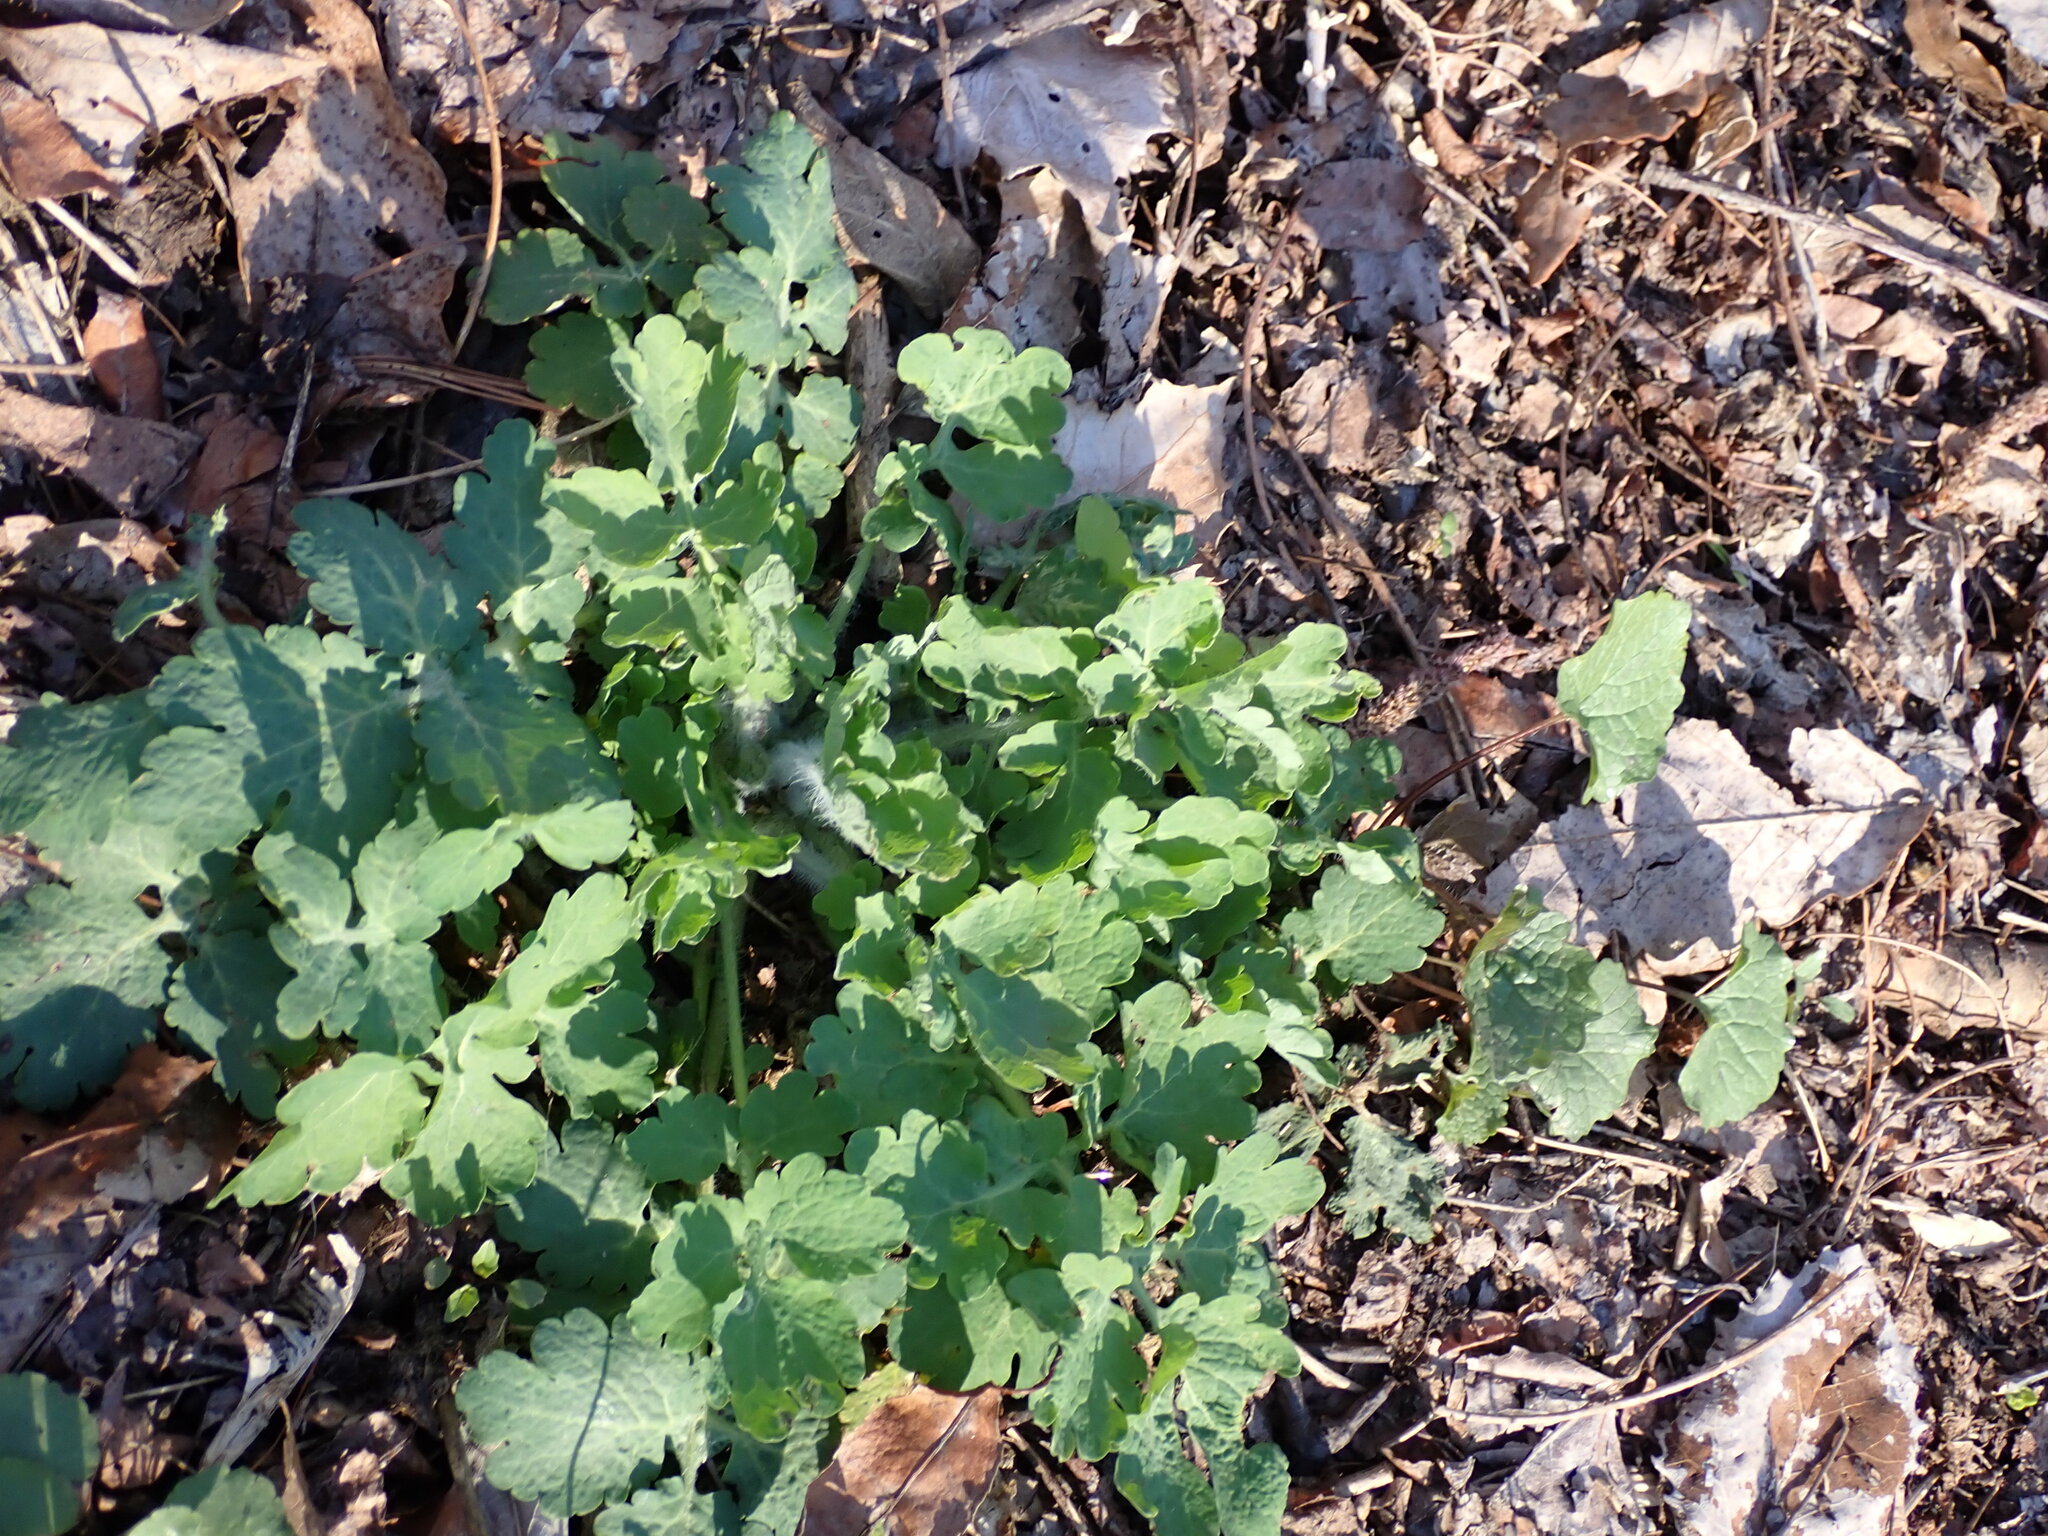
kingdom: Plantae
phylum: Tracheophyta
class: Magnoliopsida
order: Ranunculales
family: Papaveraceae
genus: Chelidonium
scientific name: Chelidonium majus
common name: Greater celandine
